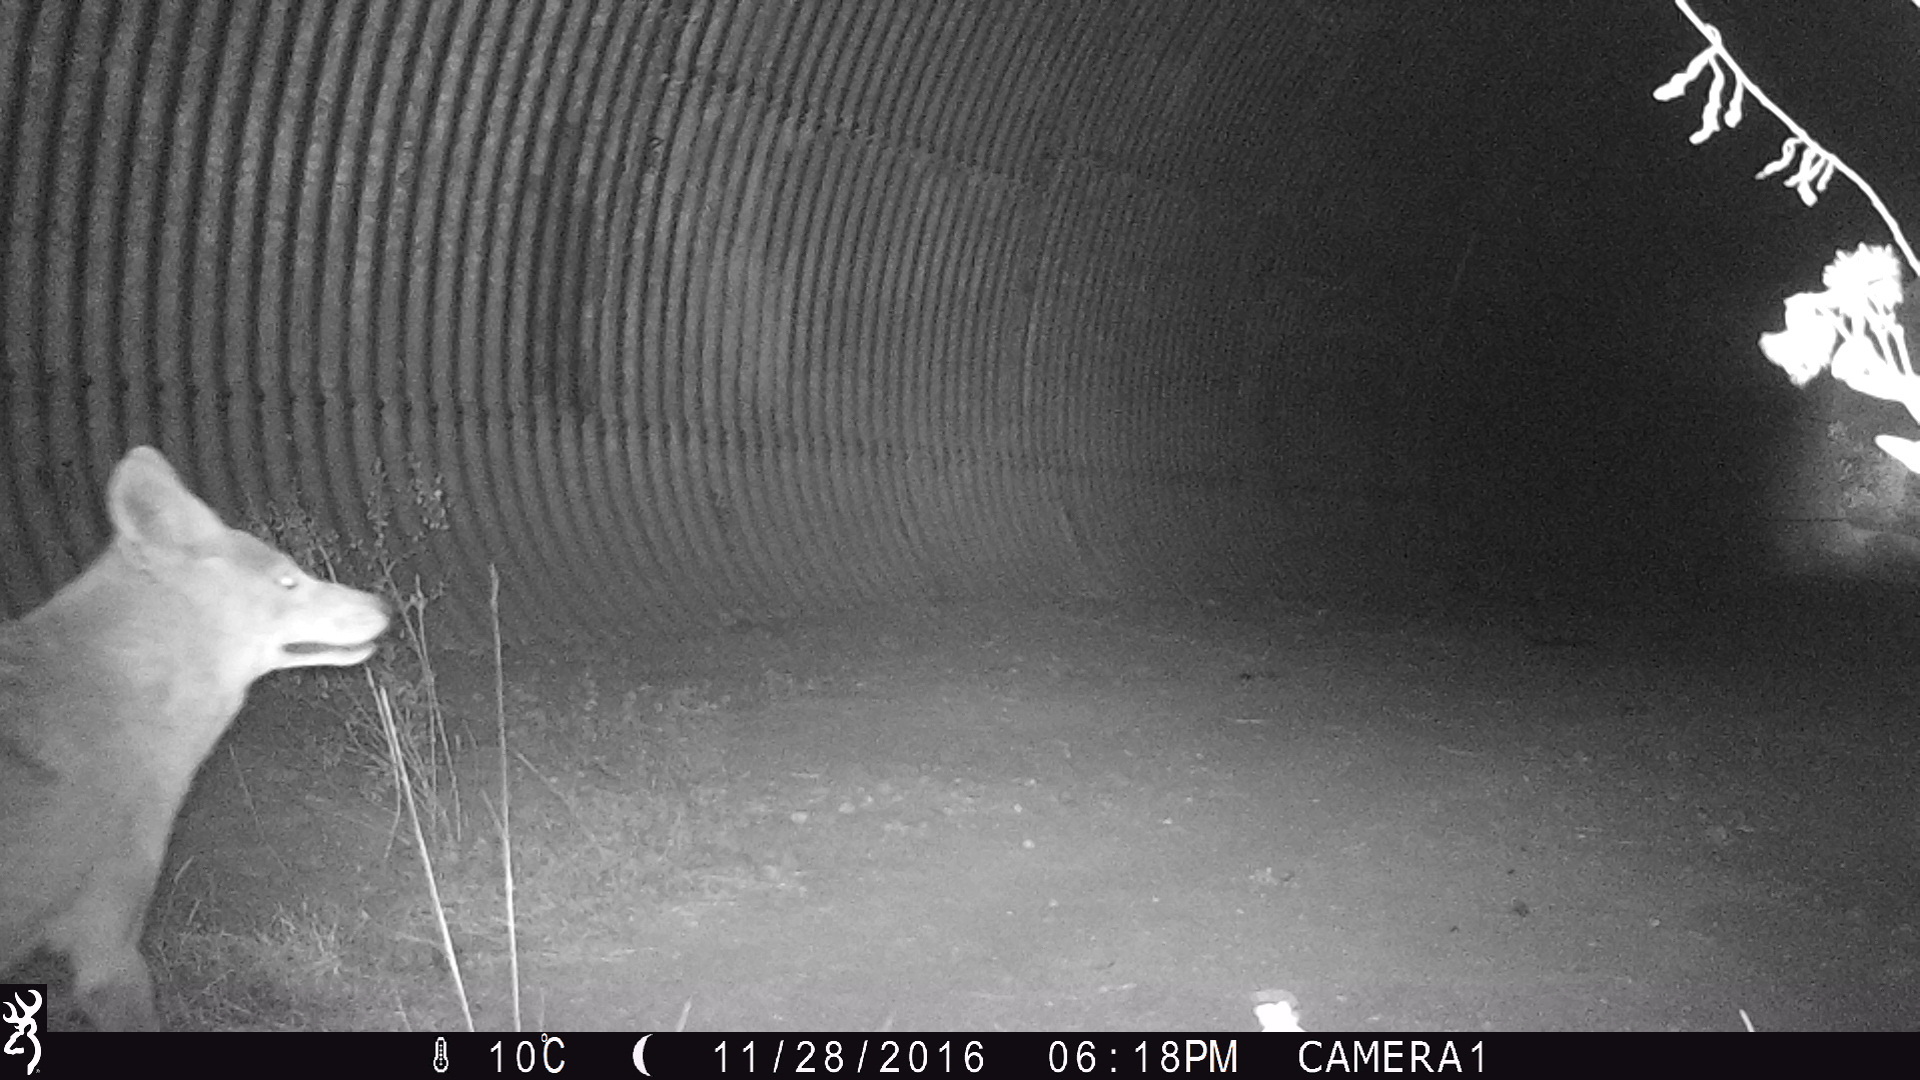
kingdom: Animalia
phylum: Chordata
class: Mammalia
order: Carnivora
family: Canidae
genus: Canis
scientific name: Canis latrans
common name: Coyote
